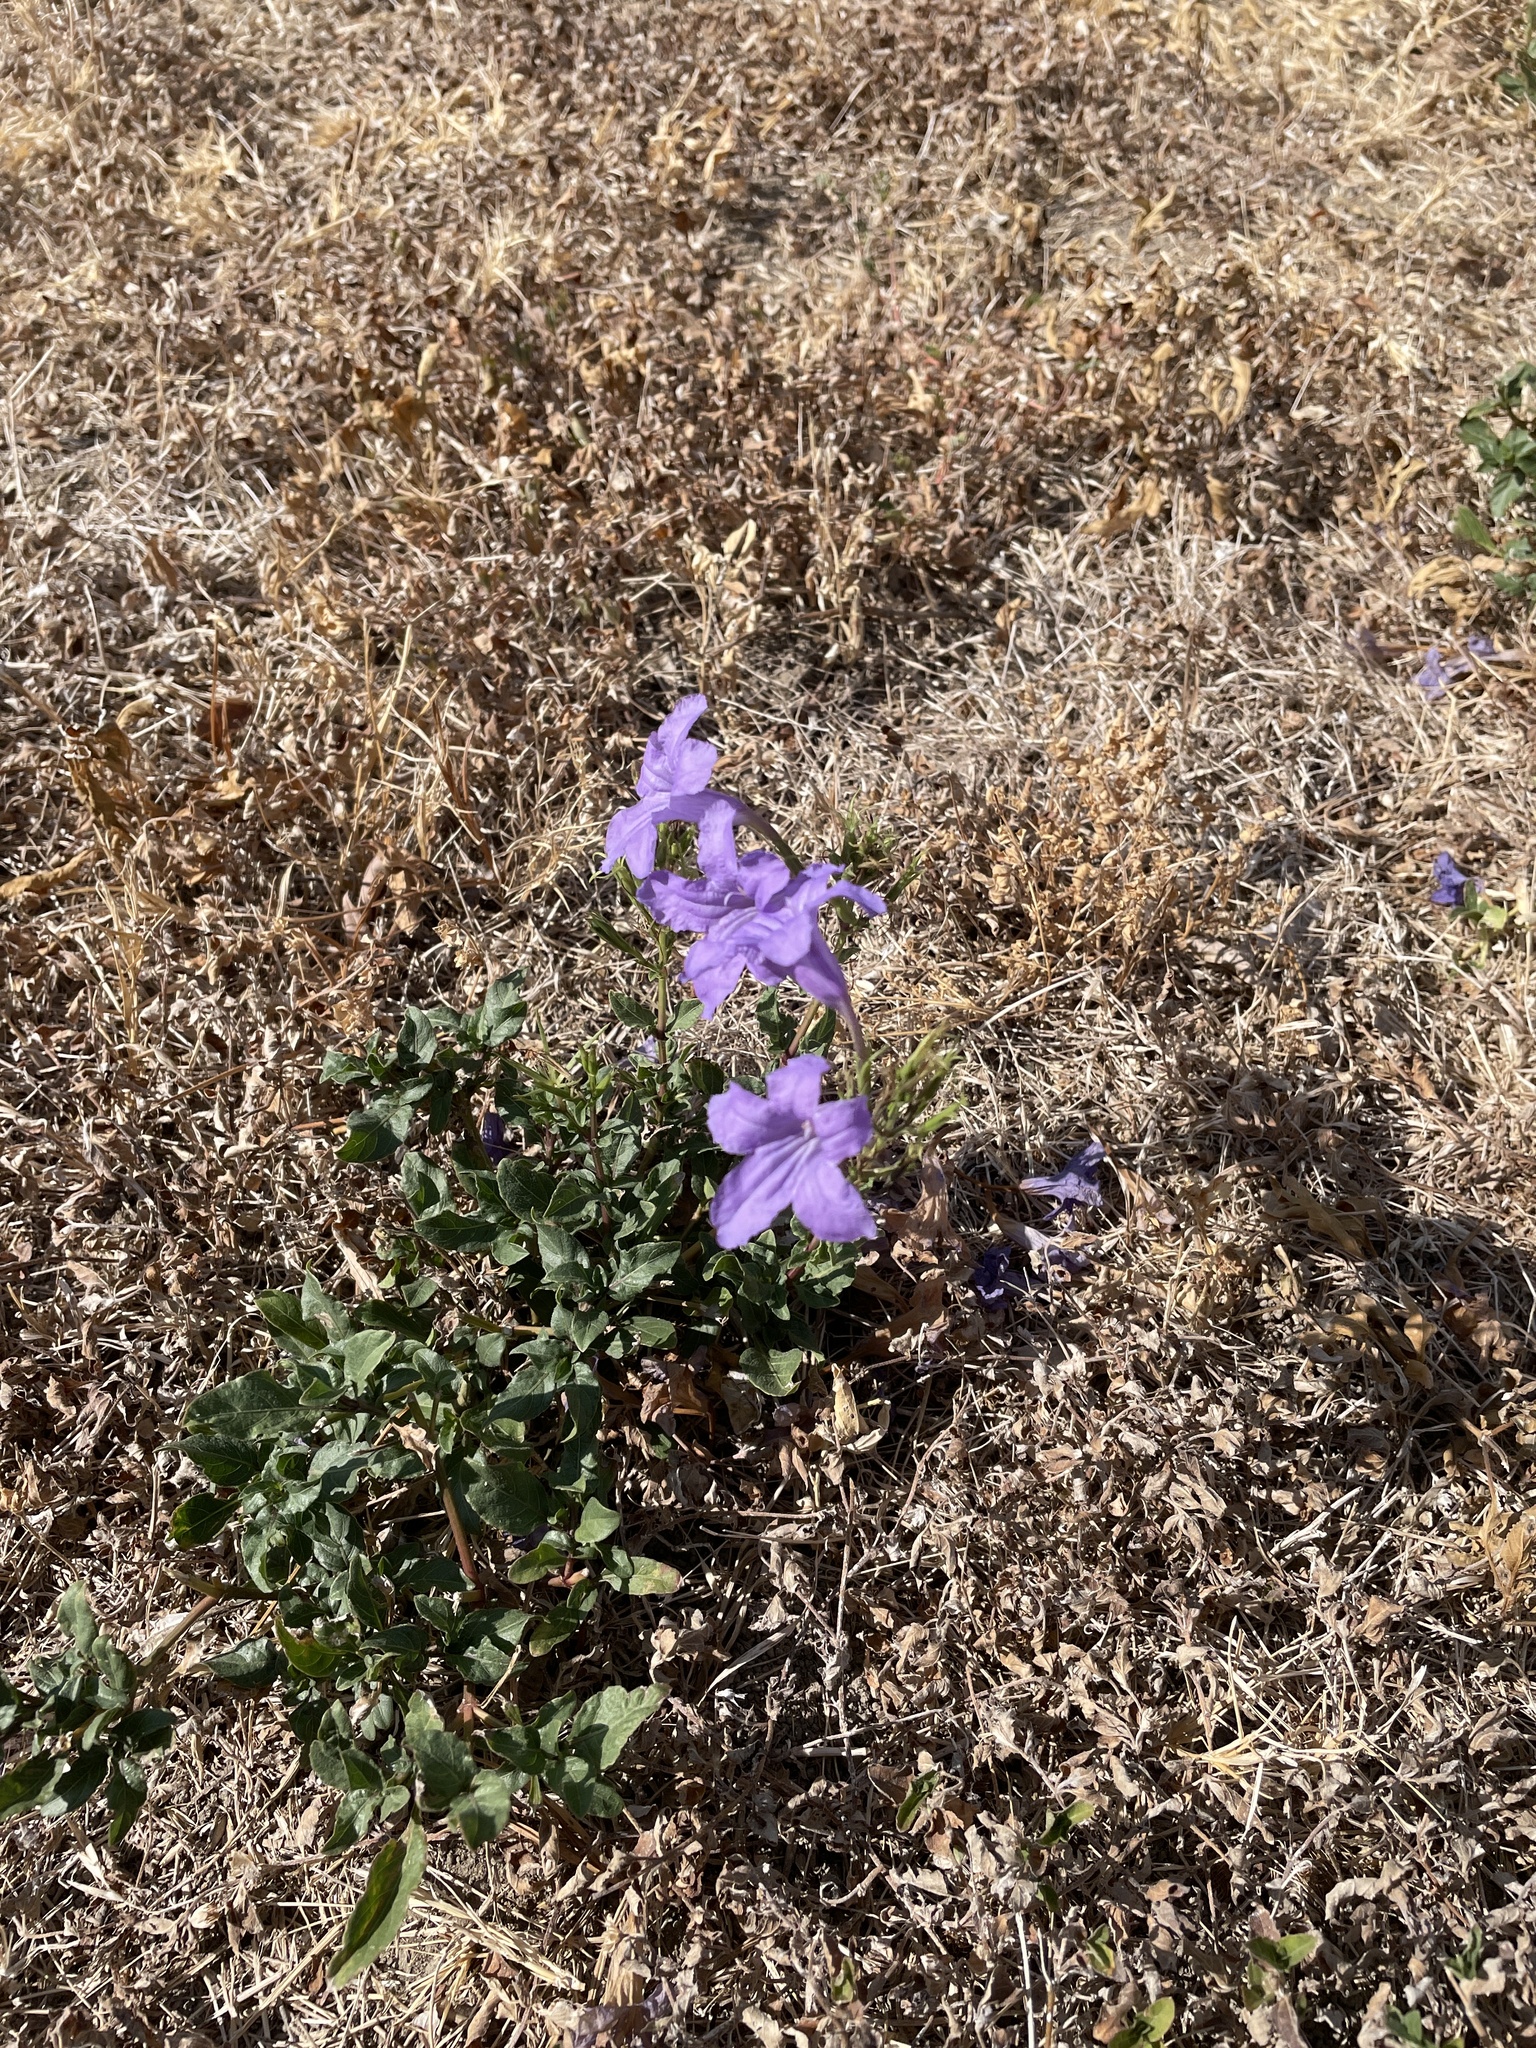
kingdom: Plantae
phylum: Tracheophyta
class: Magnoliopsida
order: Lamiales
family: Acanthaceae
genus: Ruellia
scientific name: Ruellia ciliatiflora
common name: Hairyflower wild petunia
